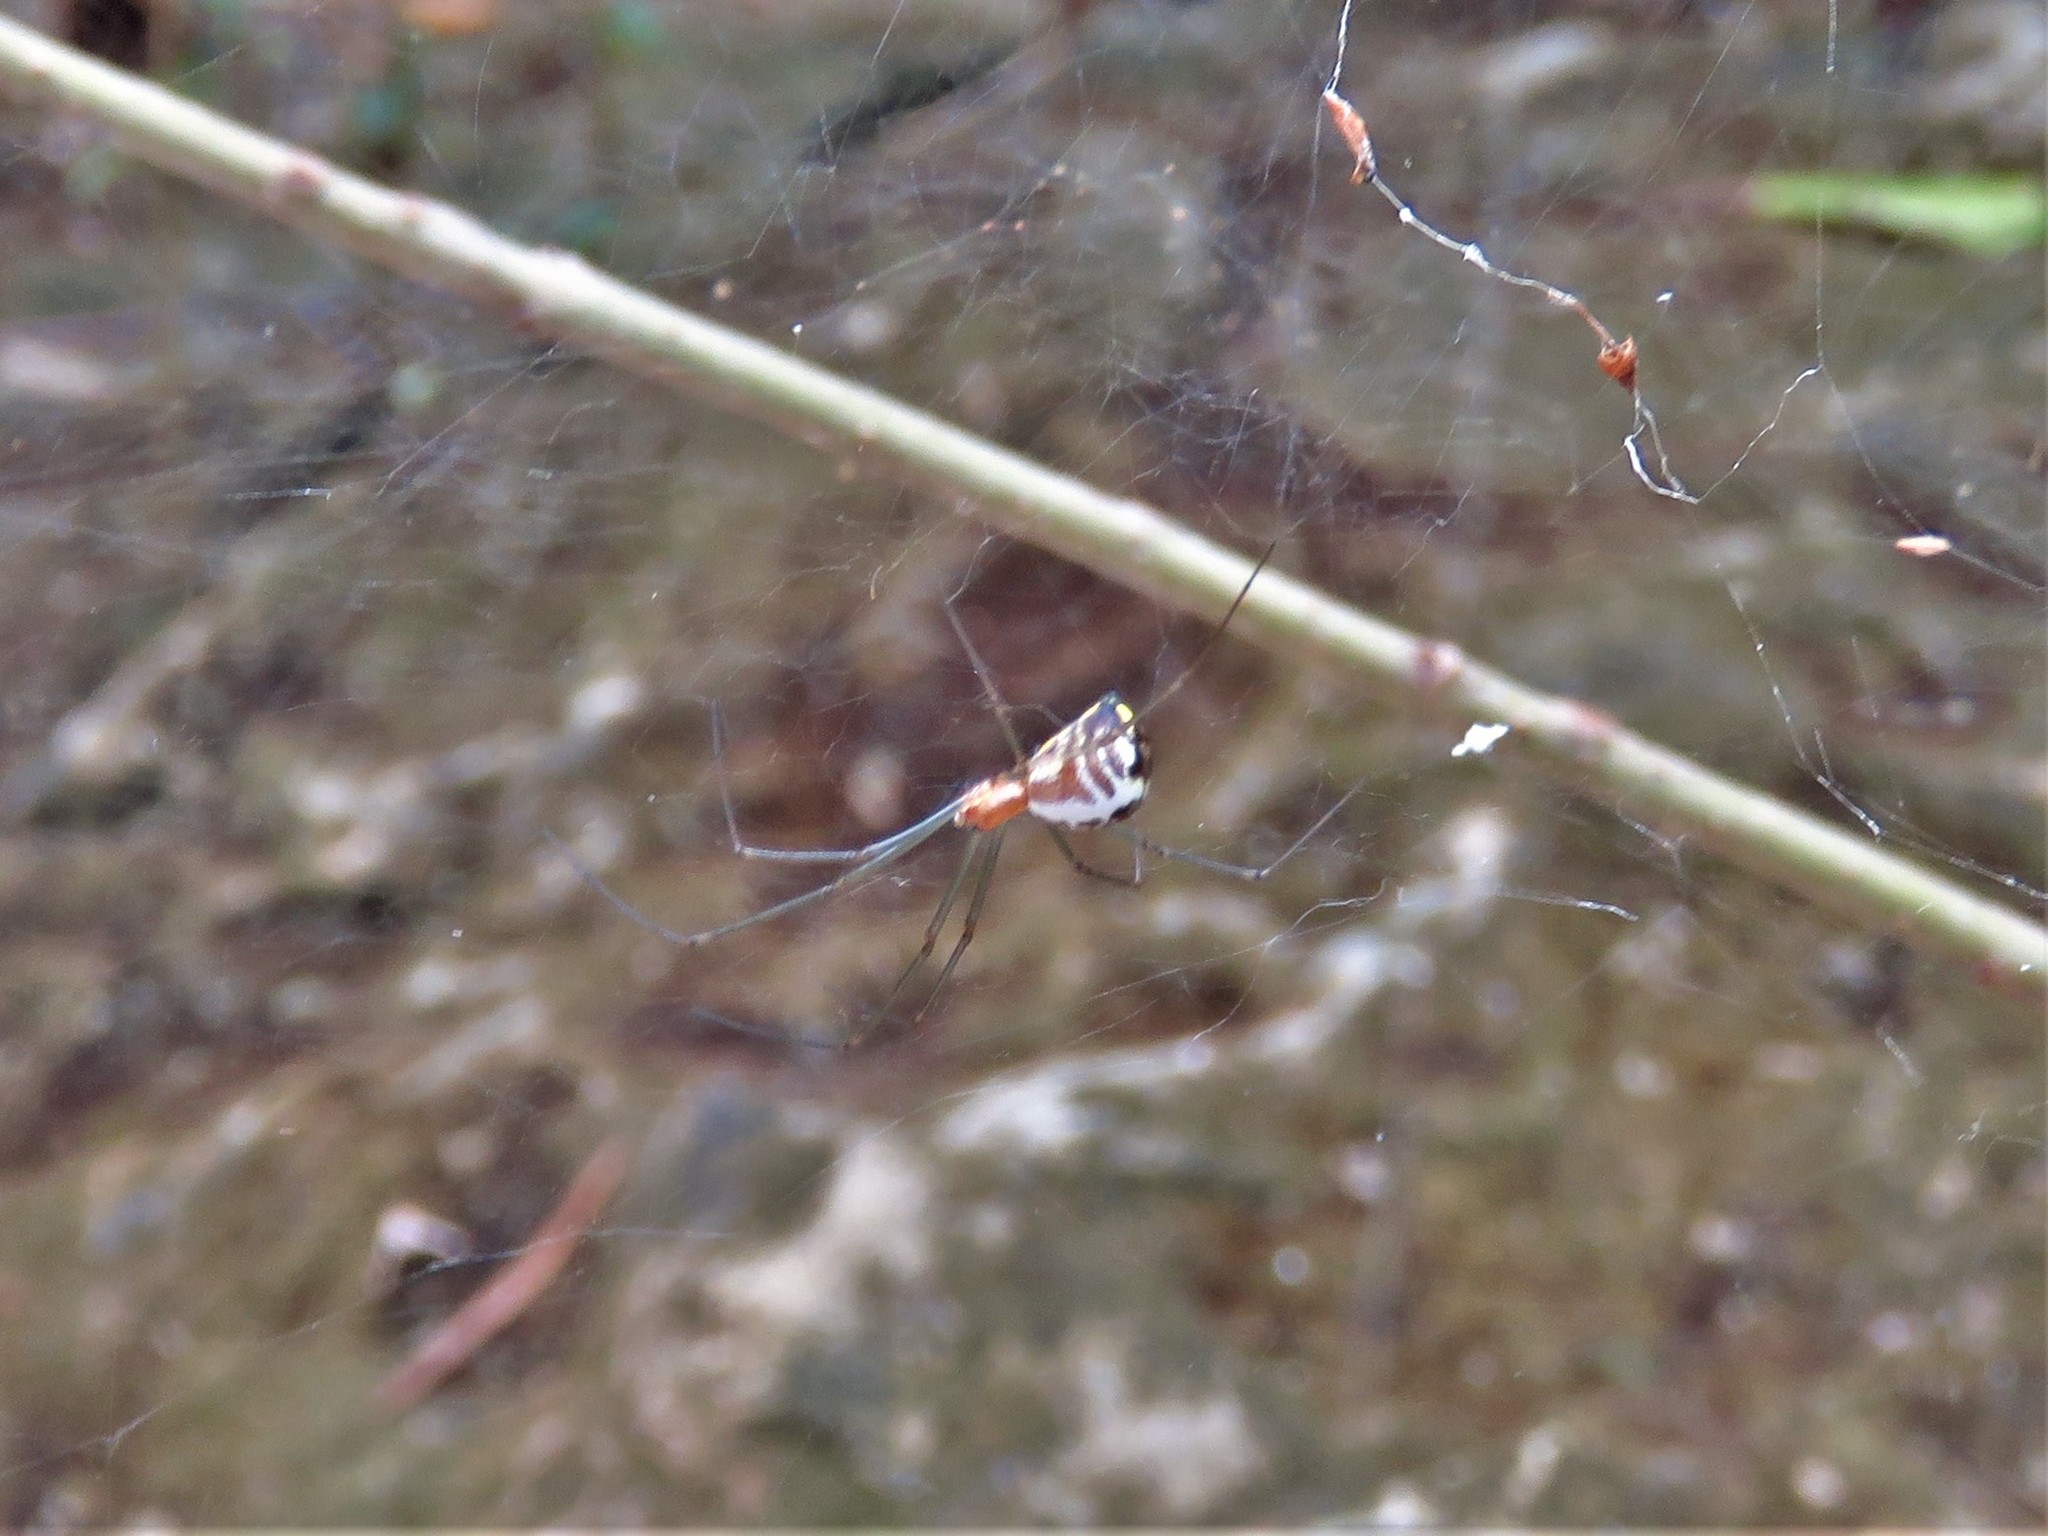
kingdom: Animalia
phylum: Arthropoda
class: Arachnida
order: Araneae
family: Linyphiidae
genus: Neriene
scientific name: Neriene radiata
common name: Filmy dome spider
